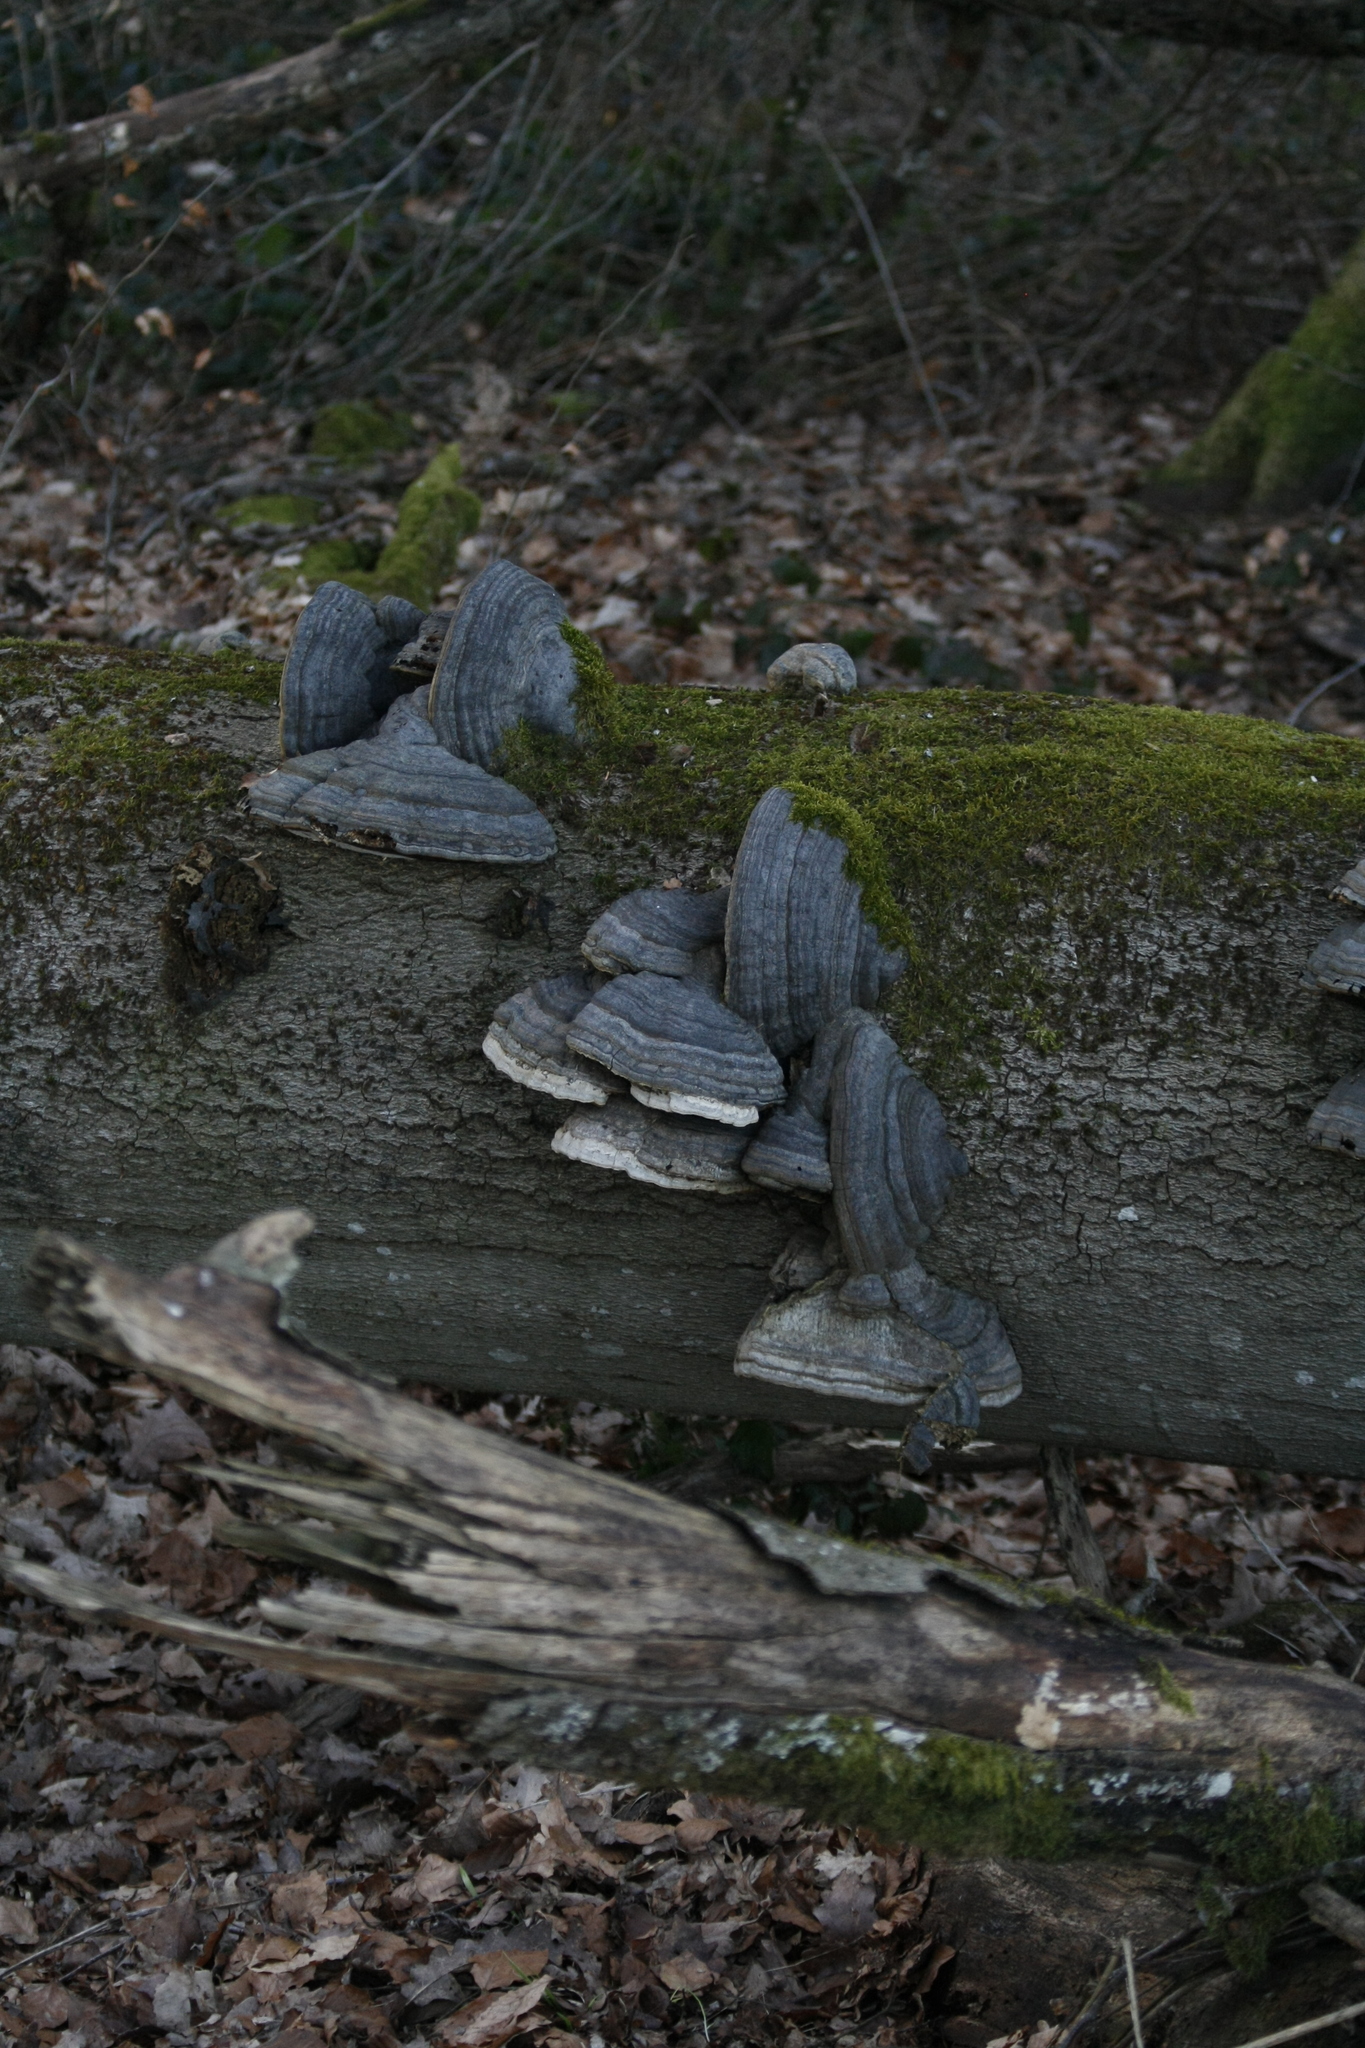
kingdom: Fungi
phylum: Basidiomycota
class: Agaricomycetes
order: Polyporales
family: Polyporaceae
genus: Fomes
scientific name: Fomes fomentarius
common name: Hoof fungus
